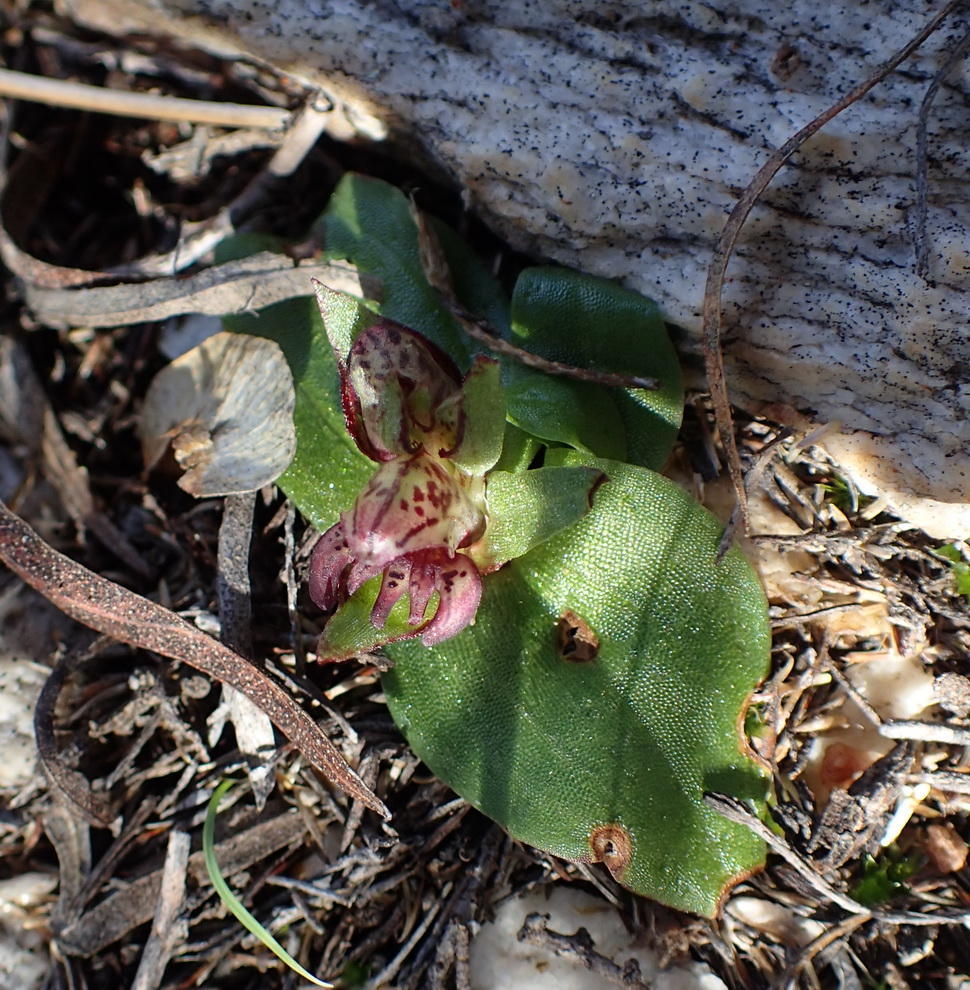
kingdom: Plantae
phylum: Tracheophyta
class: Liliopsida
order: Asparagales
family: Orchidaceae
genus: Satyrium
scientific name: Satyrium bracteatum
